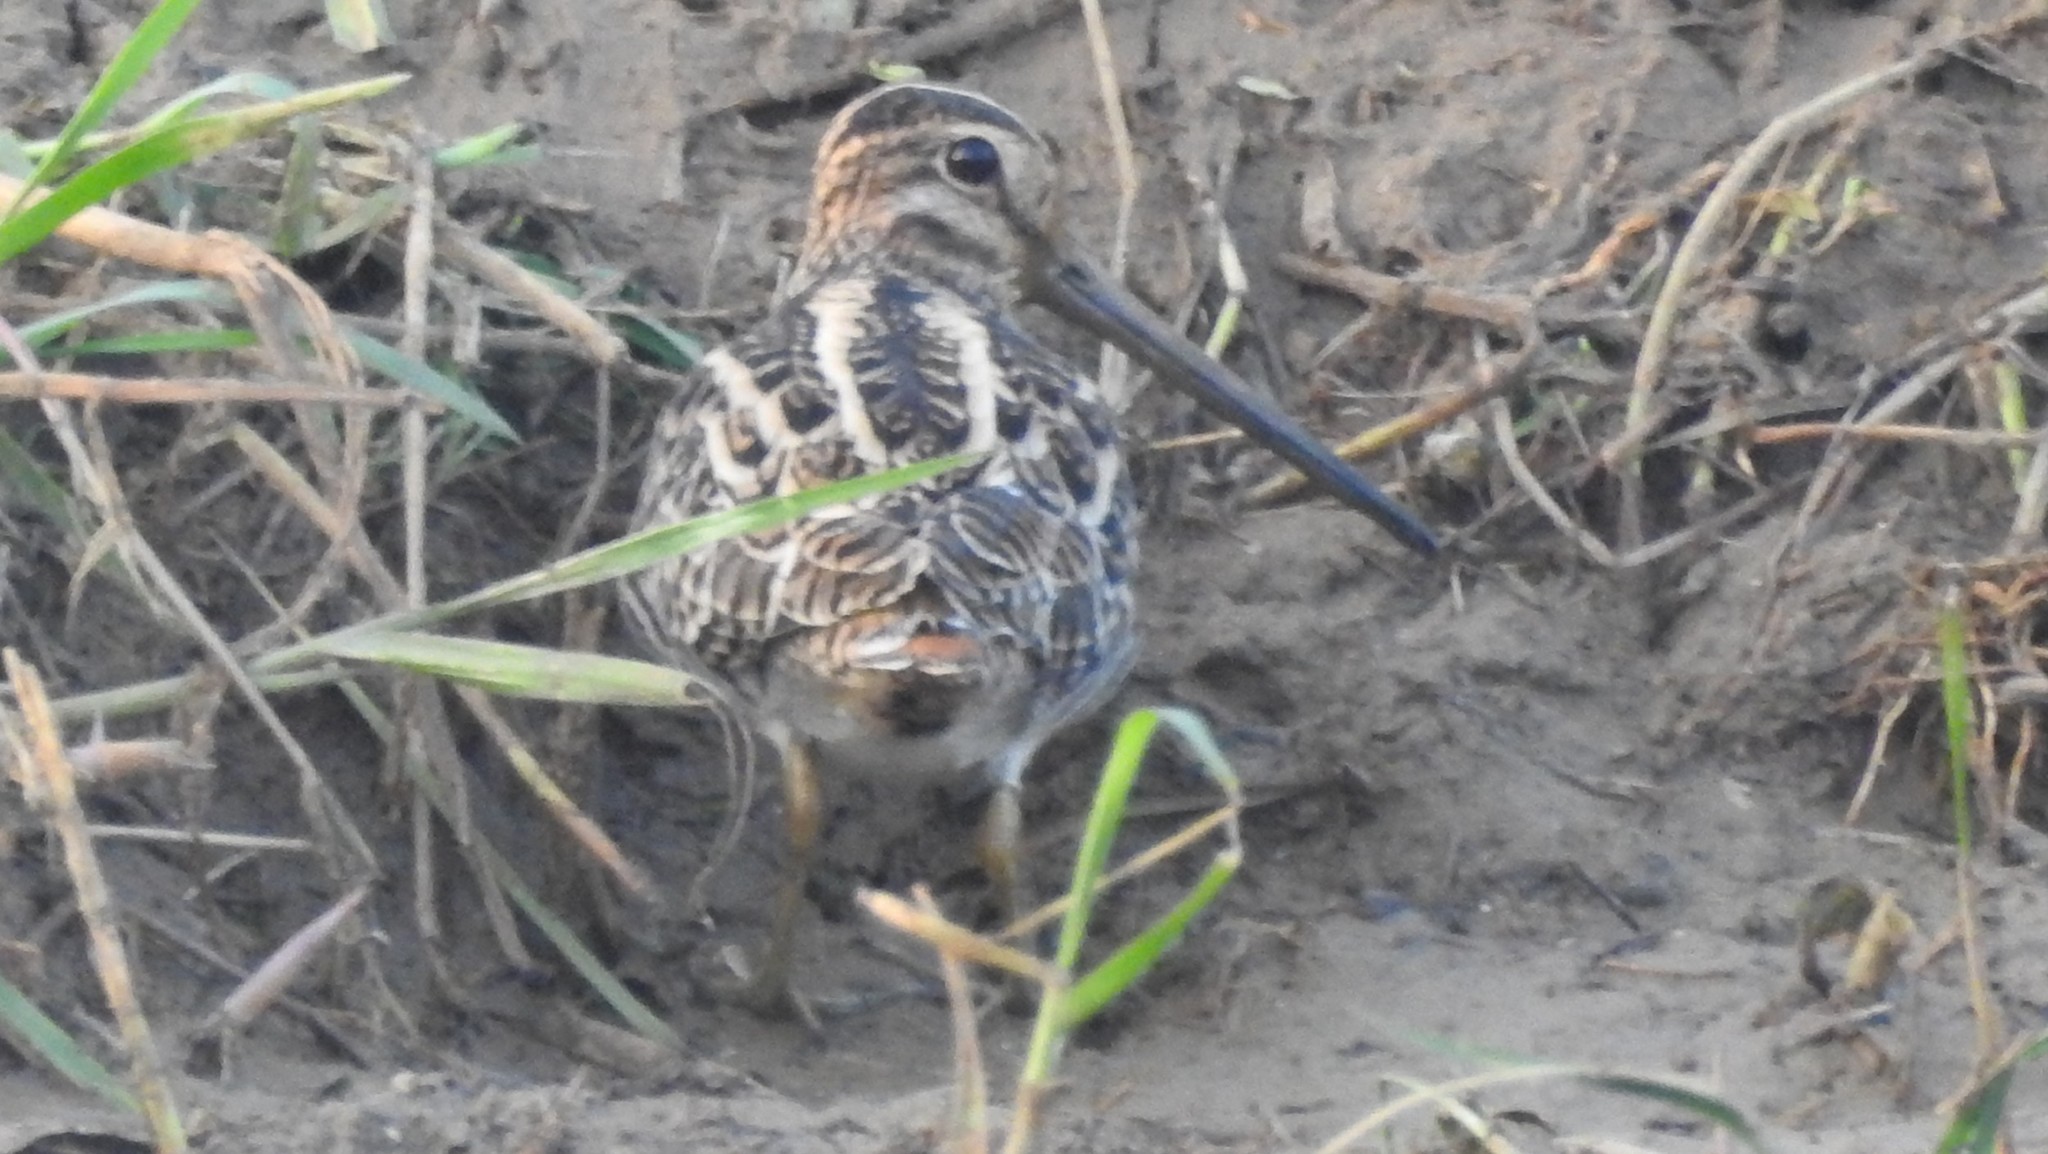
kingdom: Animalia
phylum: Chordata
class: Aves
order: Charadriiformes
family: Scolopacidae
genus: Gallinago
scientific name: Gallinago stenura
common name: Pin-tailed snipe
